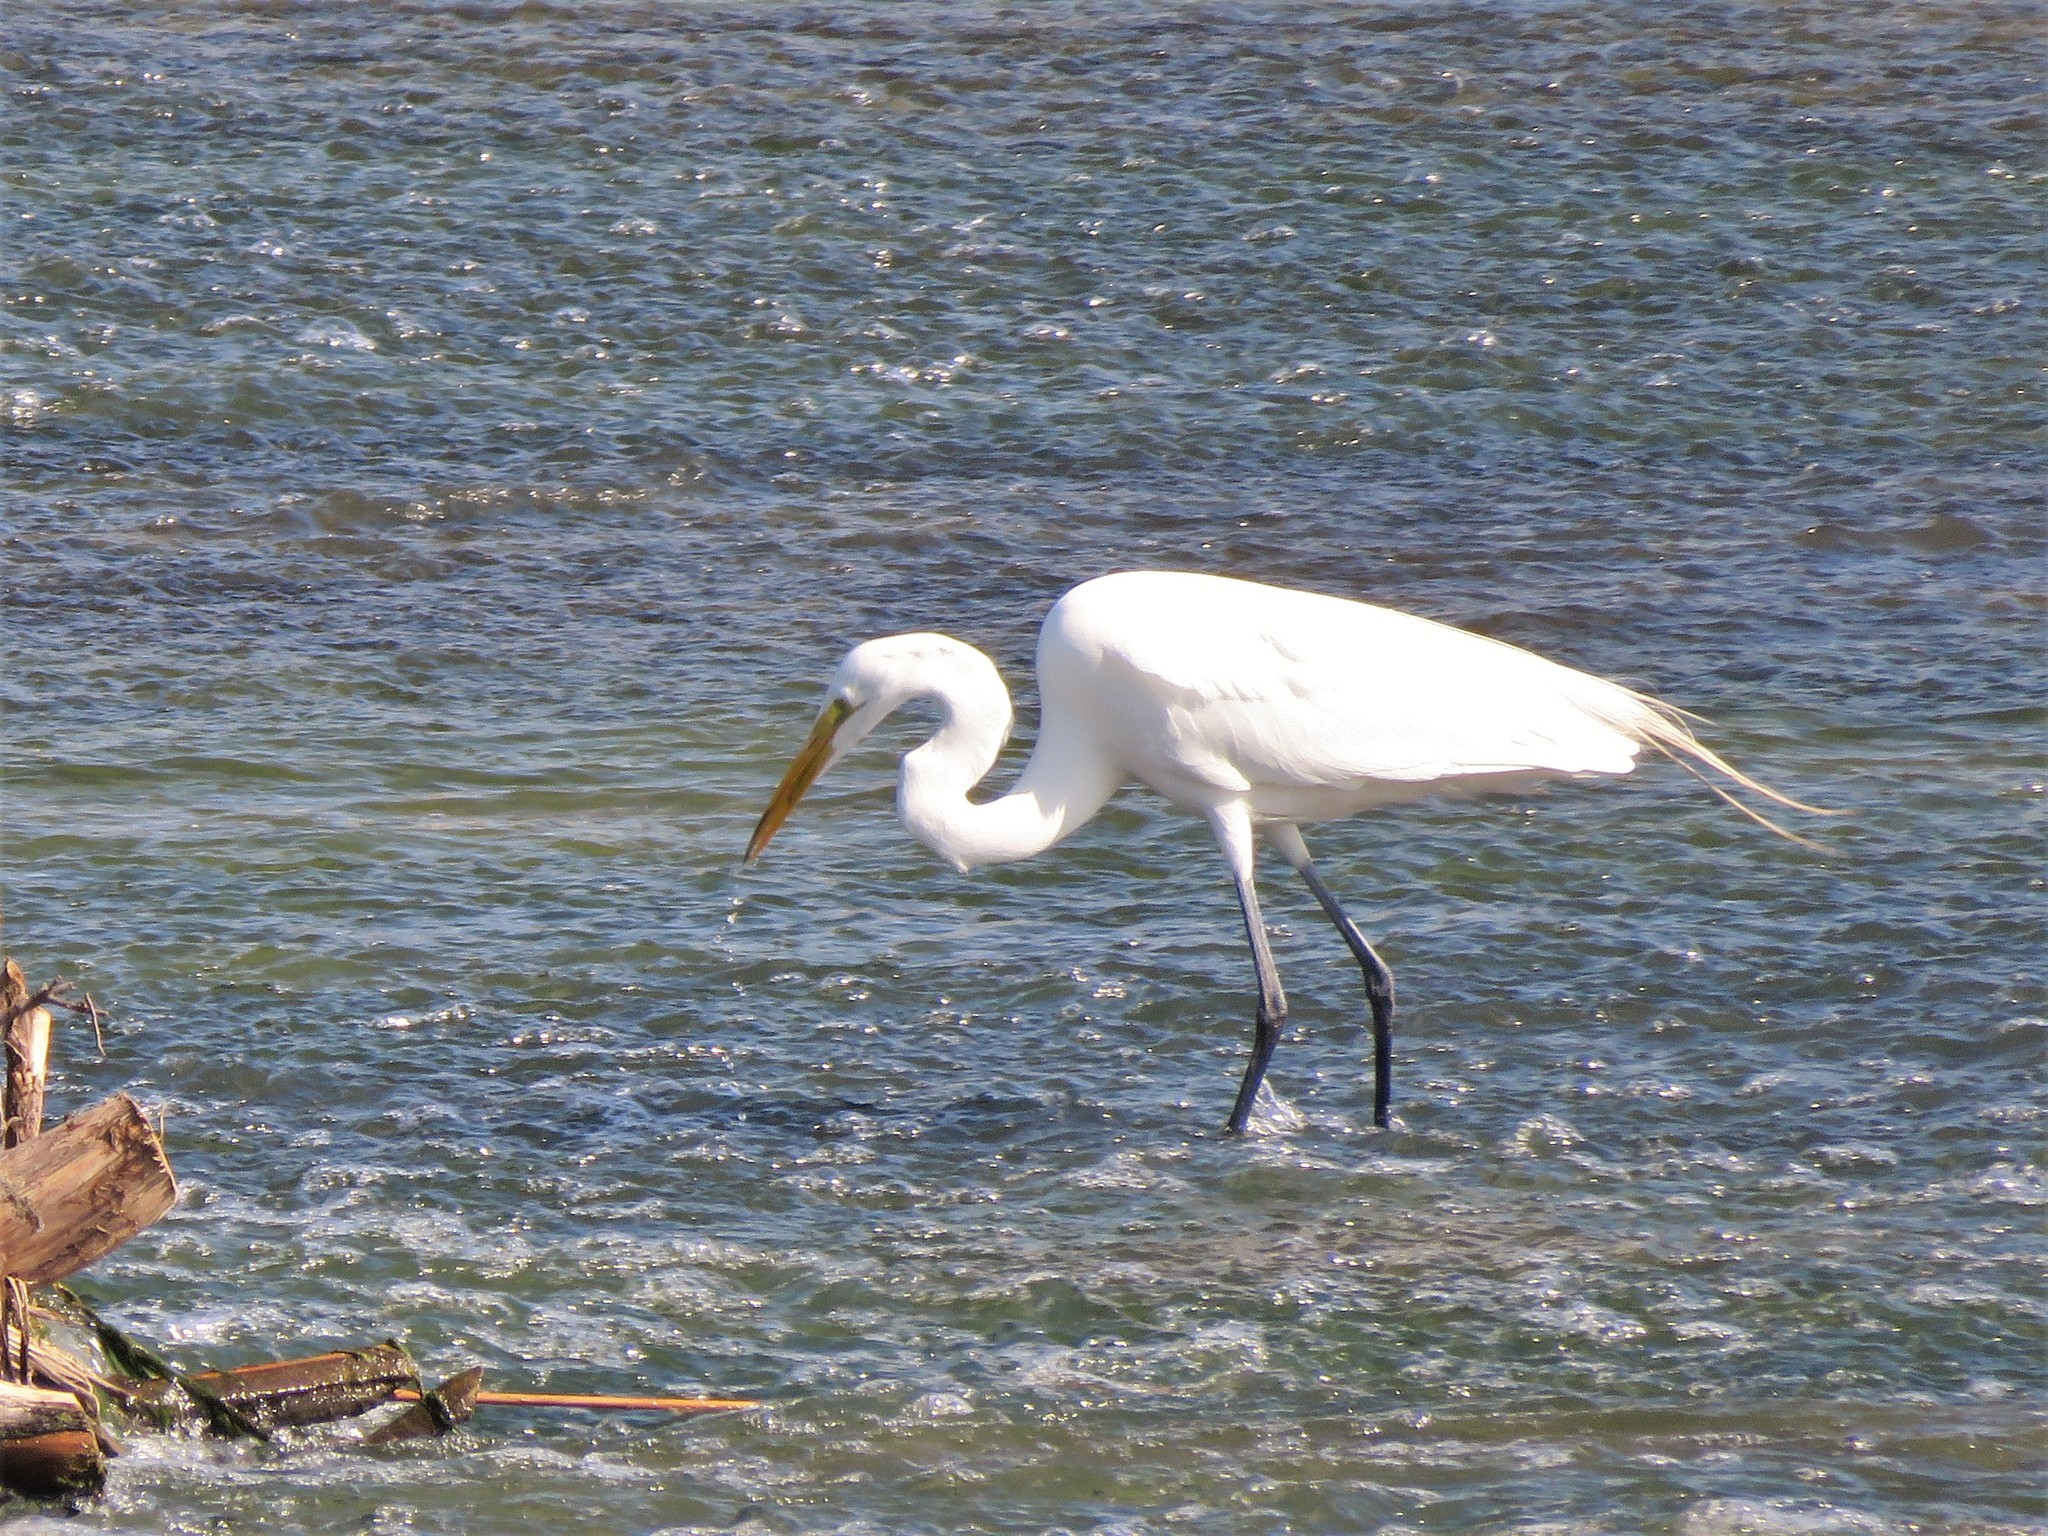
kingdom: Animalia
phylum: Chordata
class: Aves
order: Pelecaniformes
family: Ardeidae
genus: Ardea
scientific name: Ardea alba
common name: Great egret
